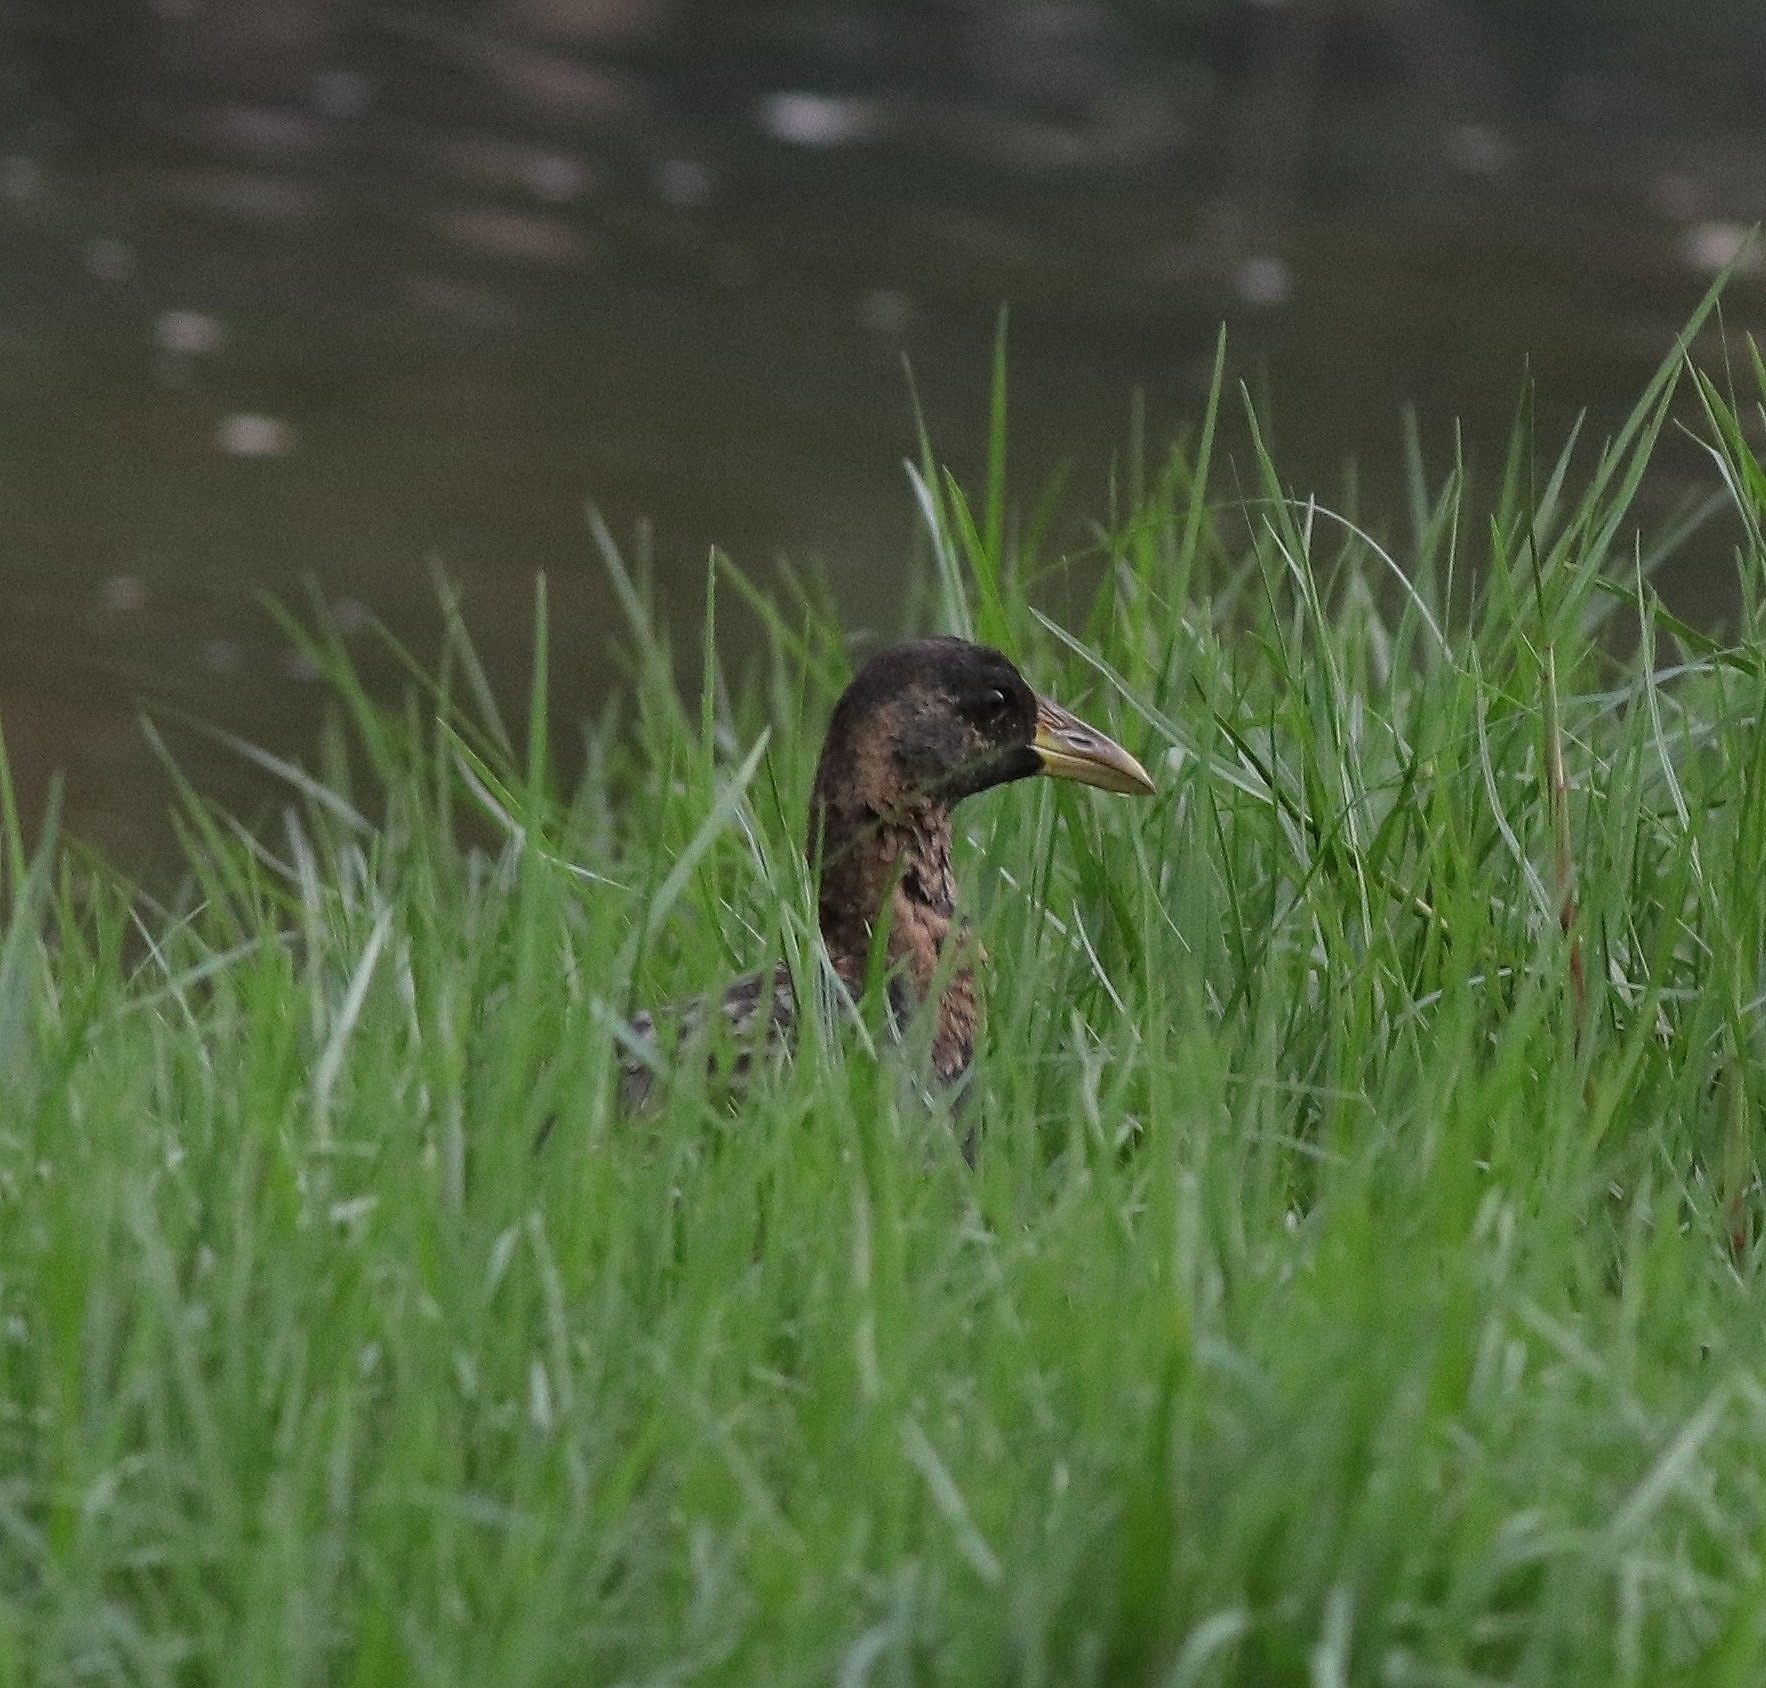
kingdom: Animalia
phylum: Chordata
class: Aves
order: Gruiformes
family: Rallidae
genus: Gallicrex
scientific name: Gallicrex cinerea
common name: Watercock
